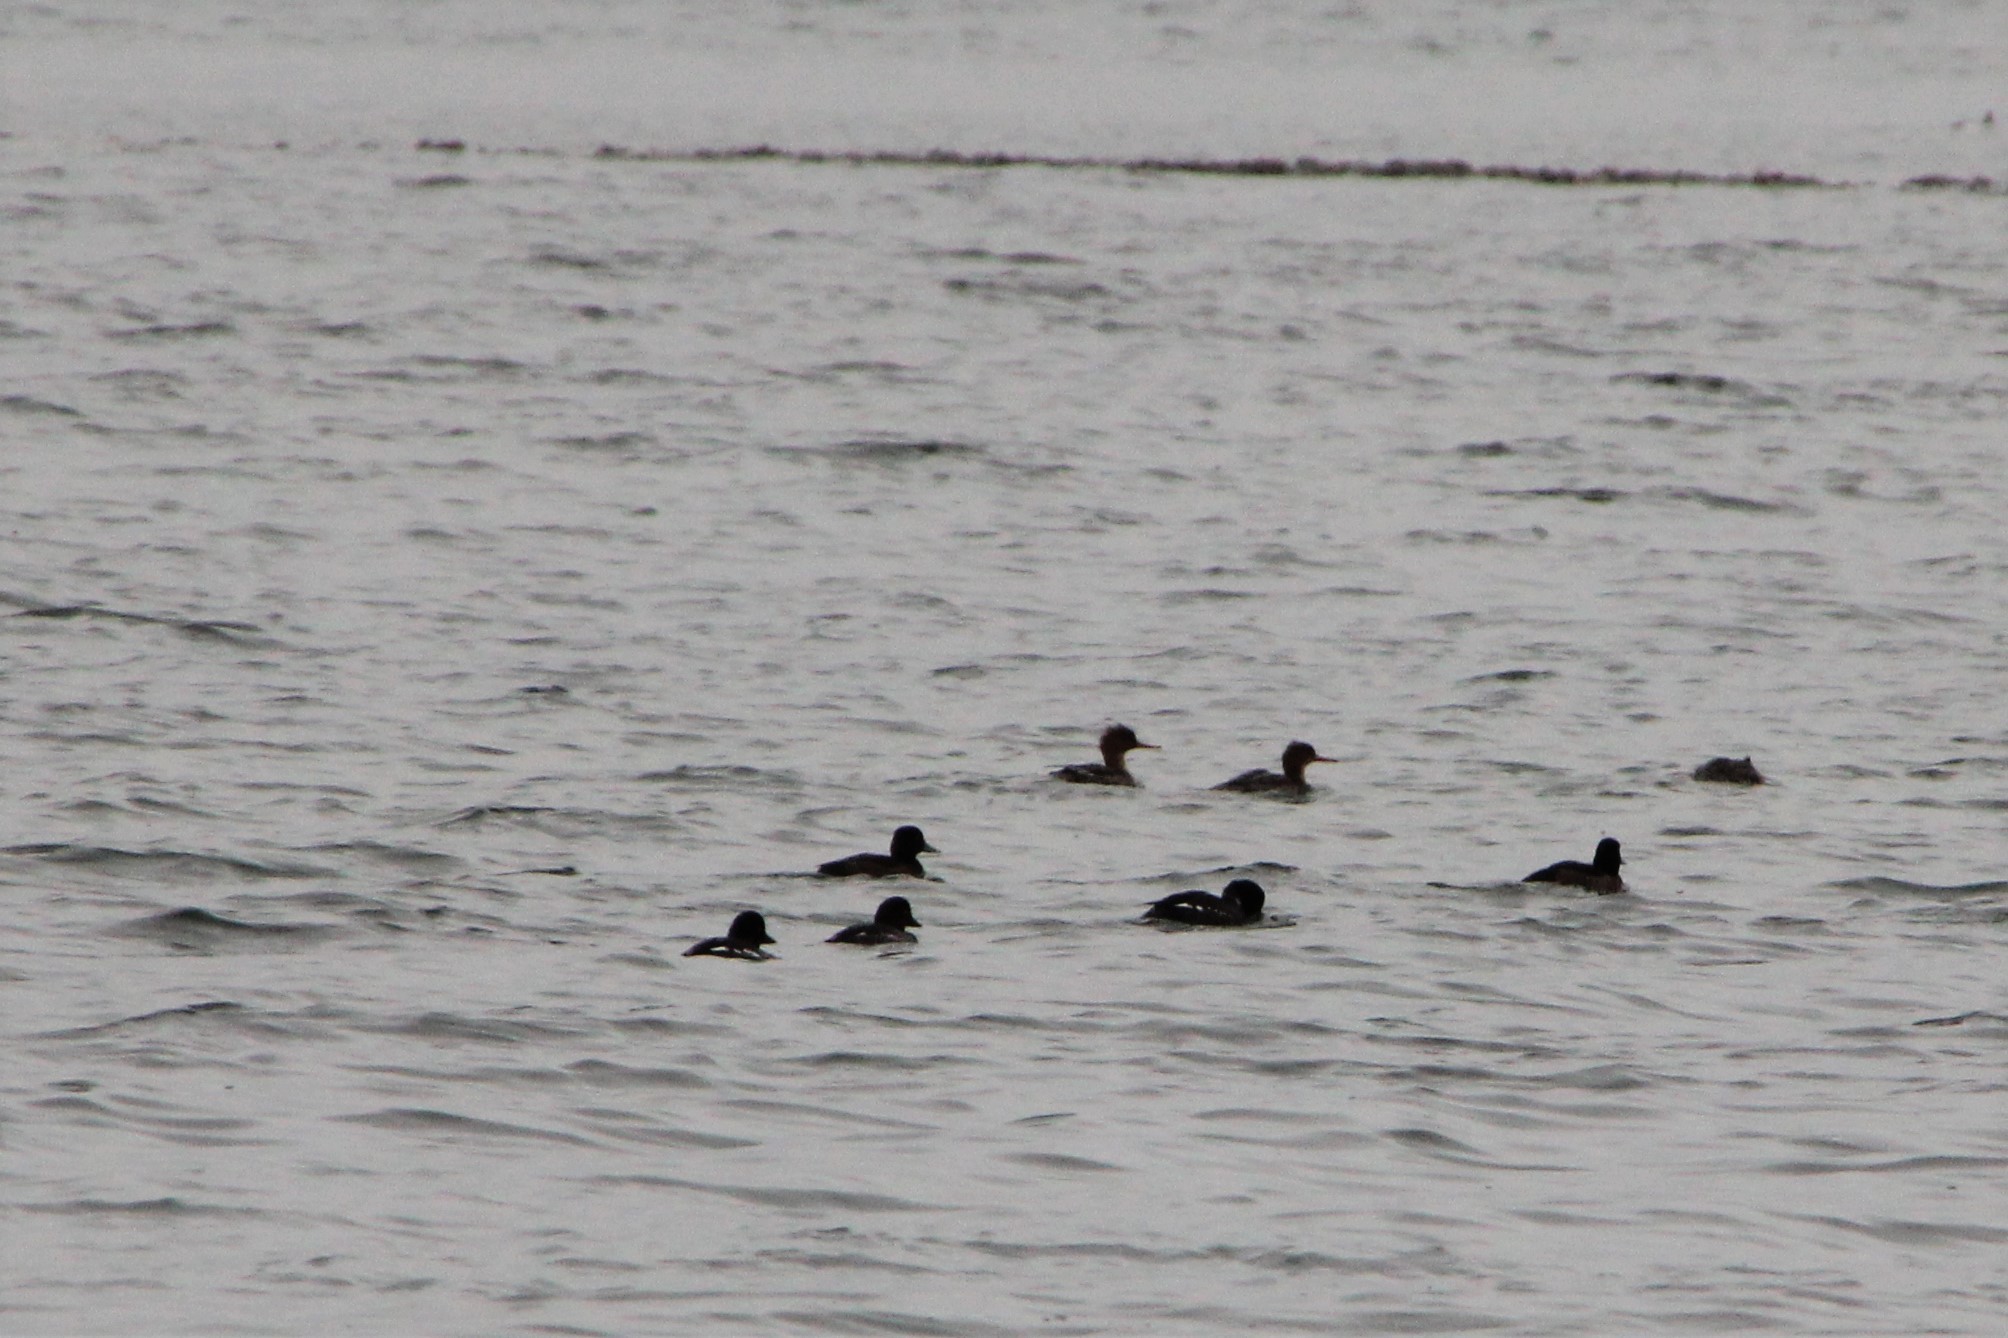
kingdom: Animalia
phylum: Chordata
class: Aves
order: Anseriformes
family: Anatidae
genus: Mergus
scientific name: Mergus serrator
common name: Red-breasted merganser
